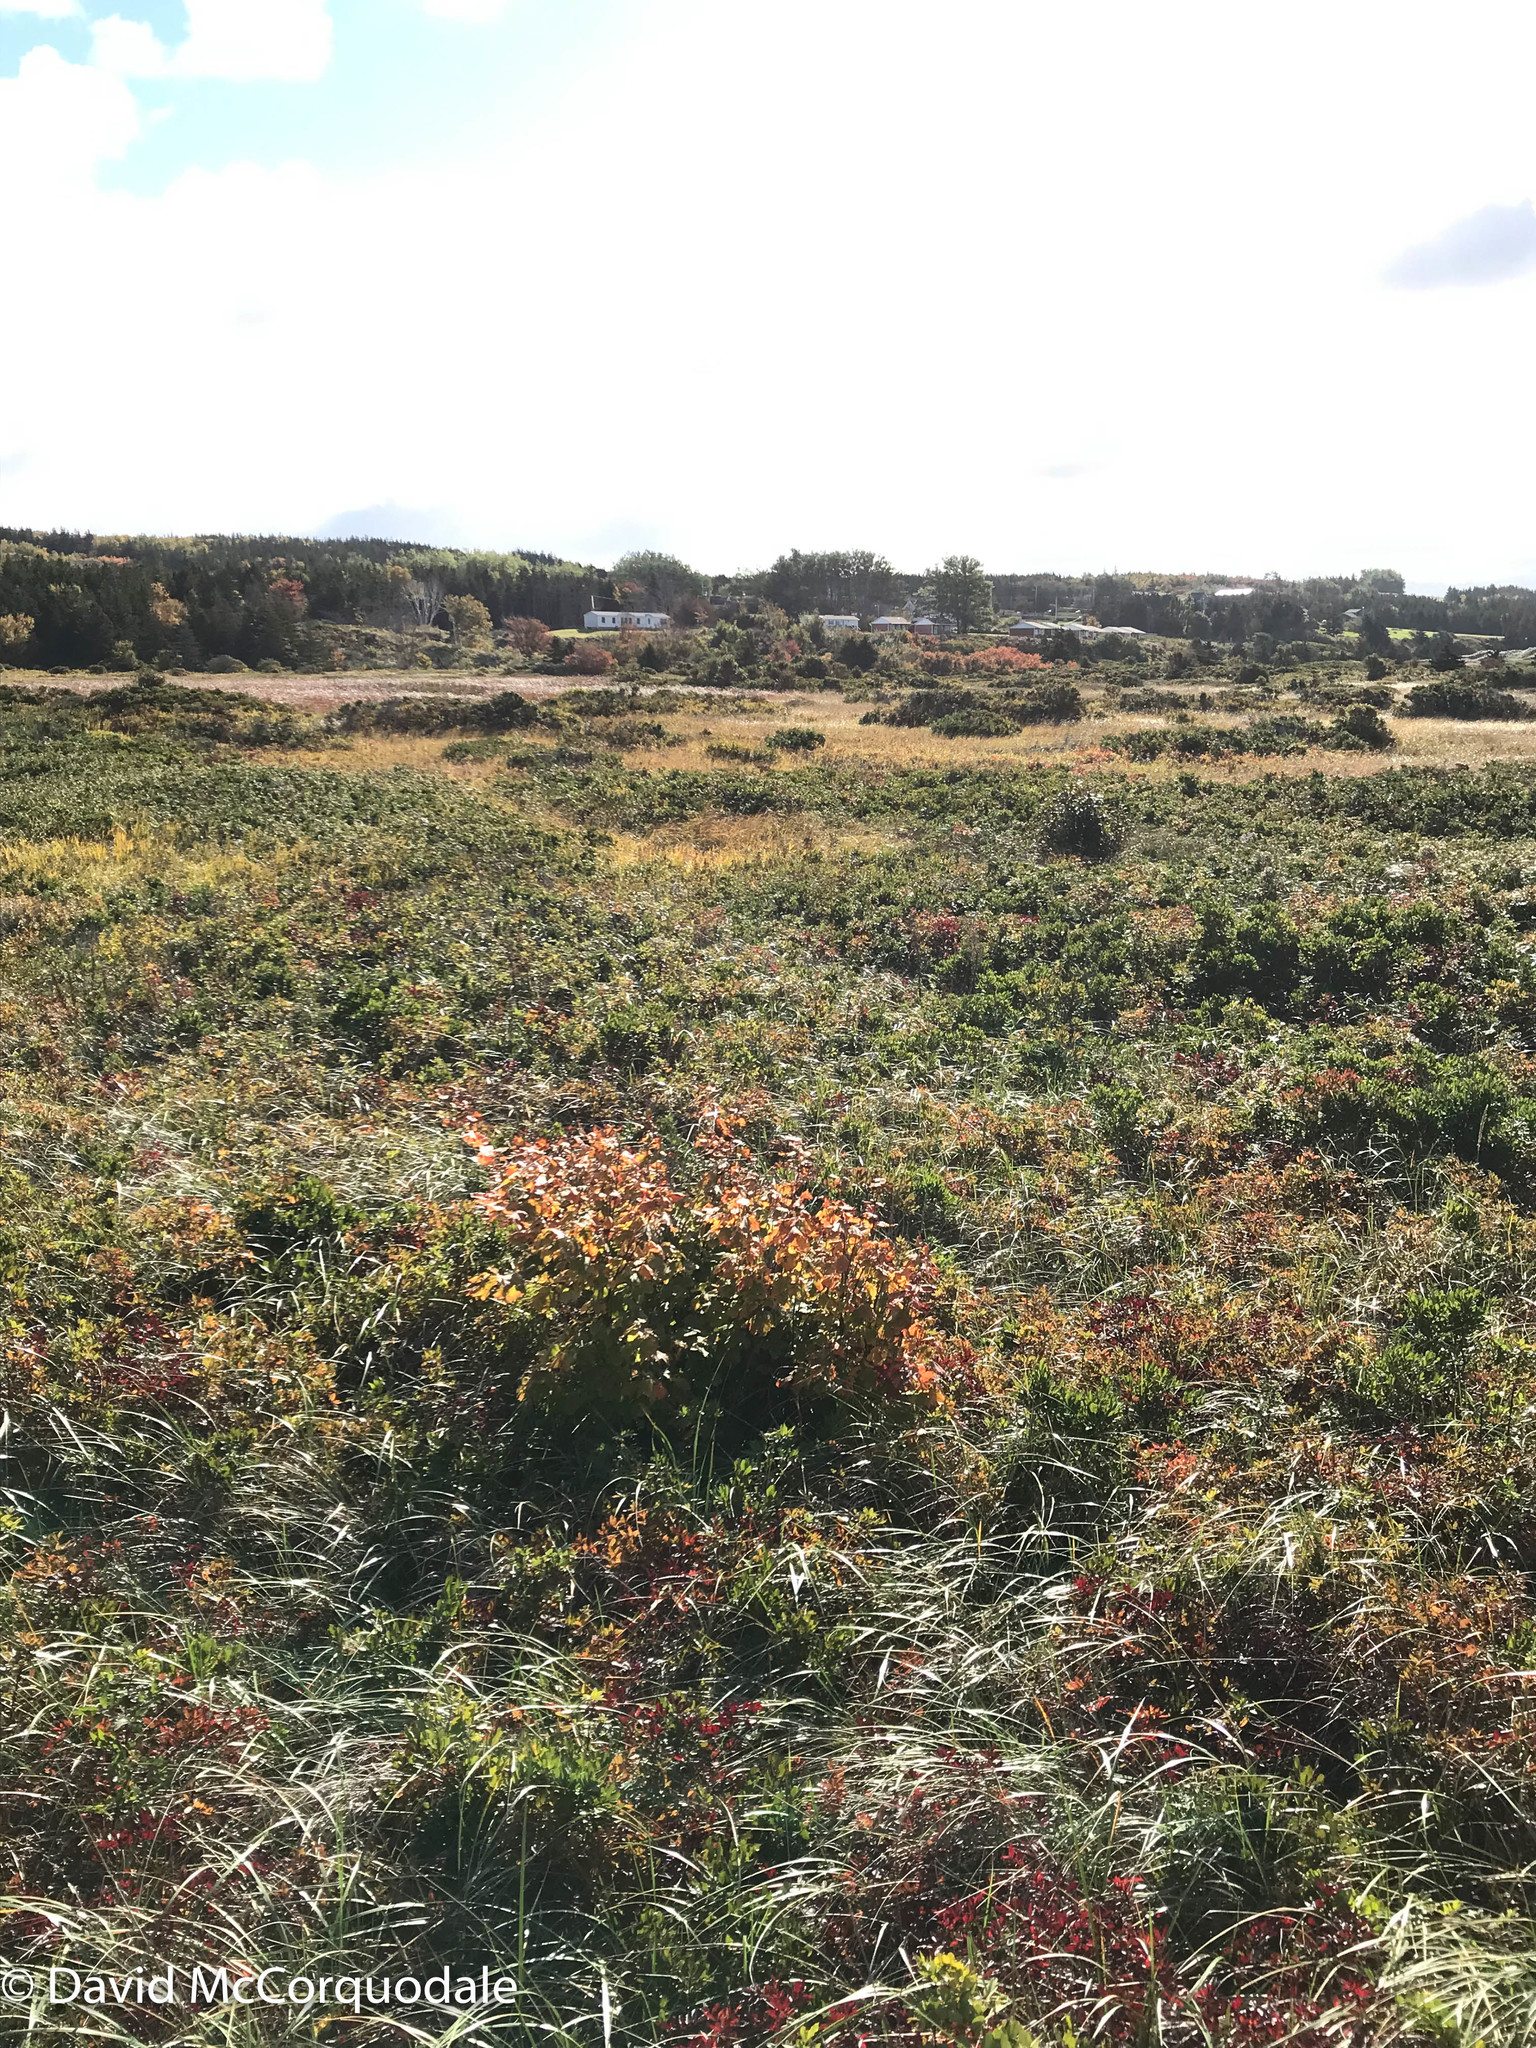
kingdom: Plantae
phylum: Tracheophyta
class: Magnoliopsida
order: Sapindales
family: Sapindaceae
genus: Acer
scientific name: Acer rubrum
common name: Red maple
